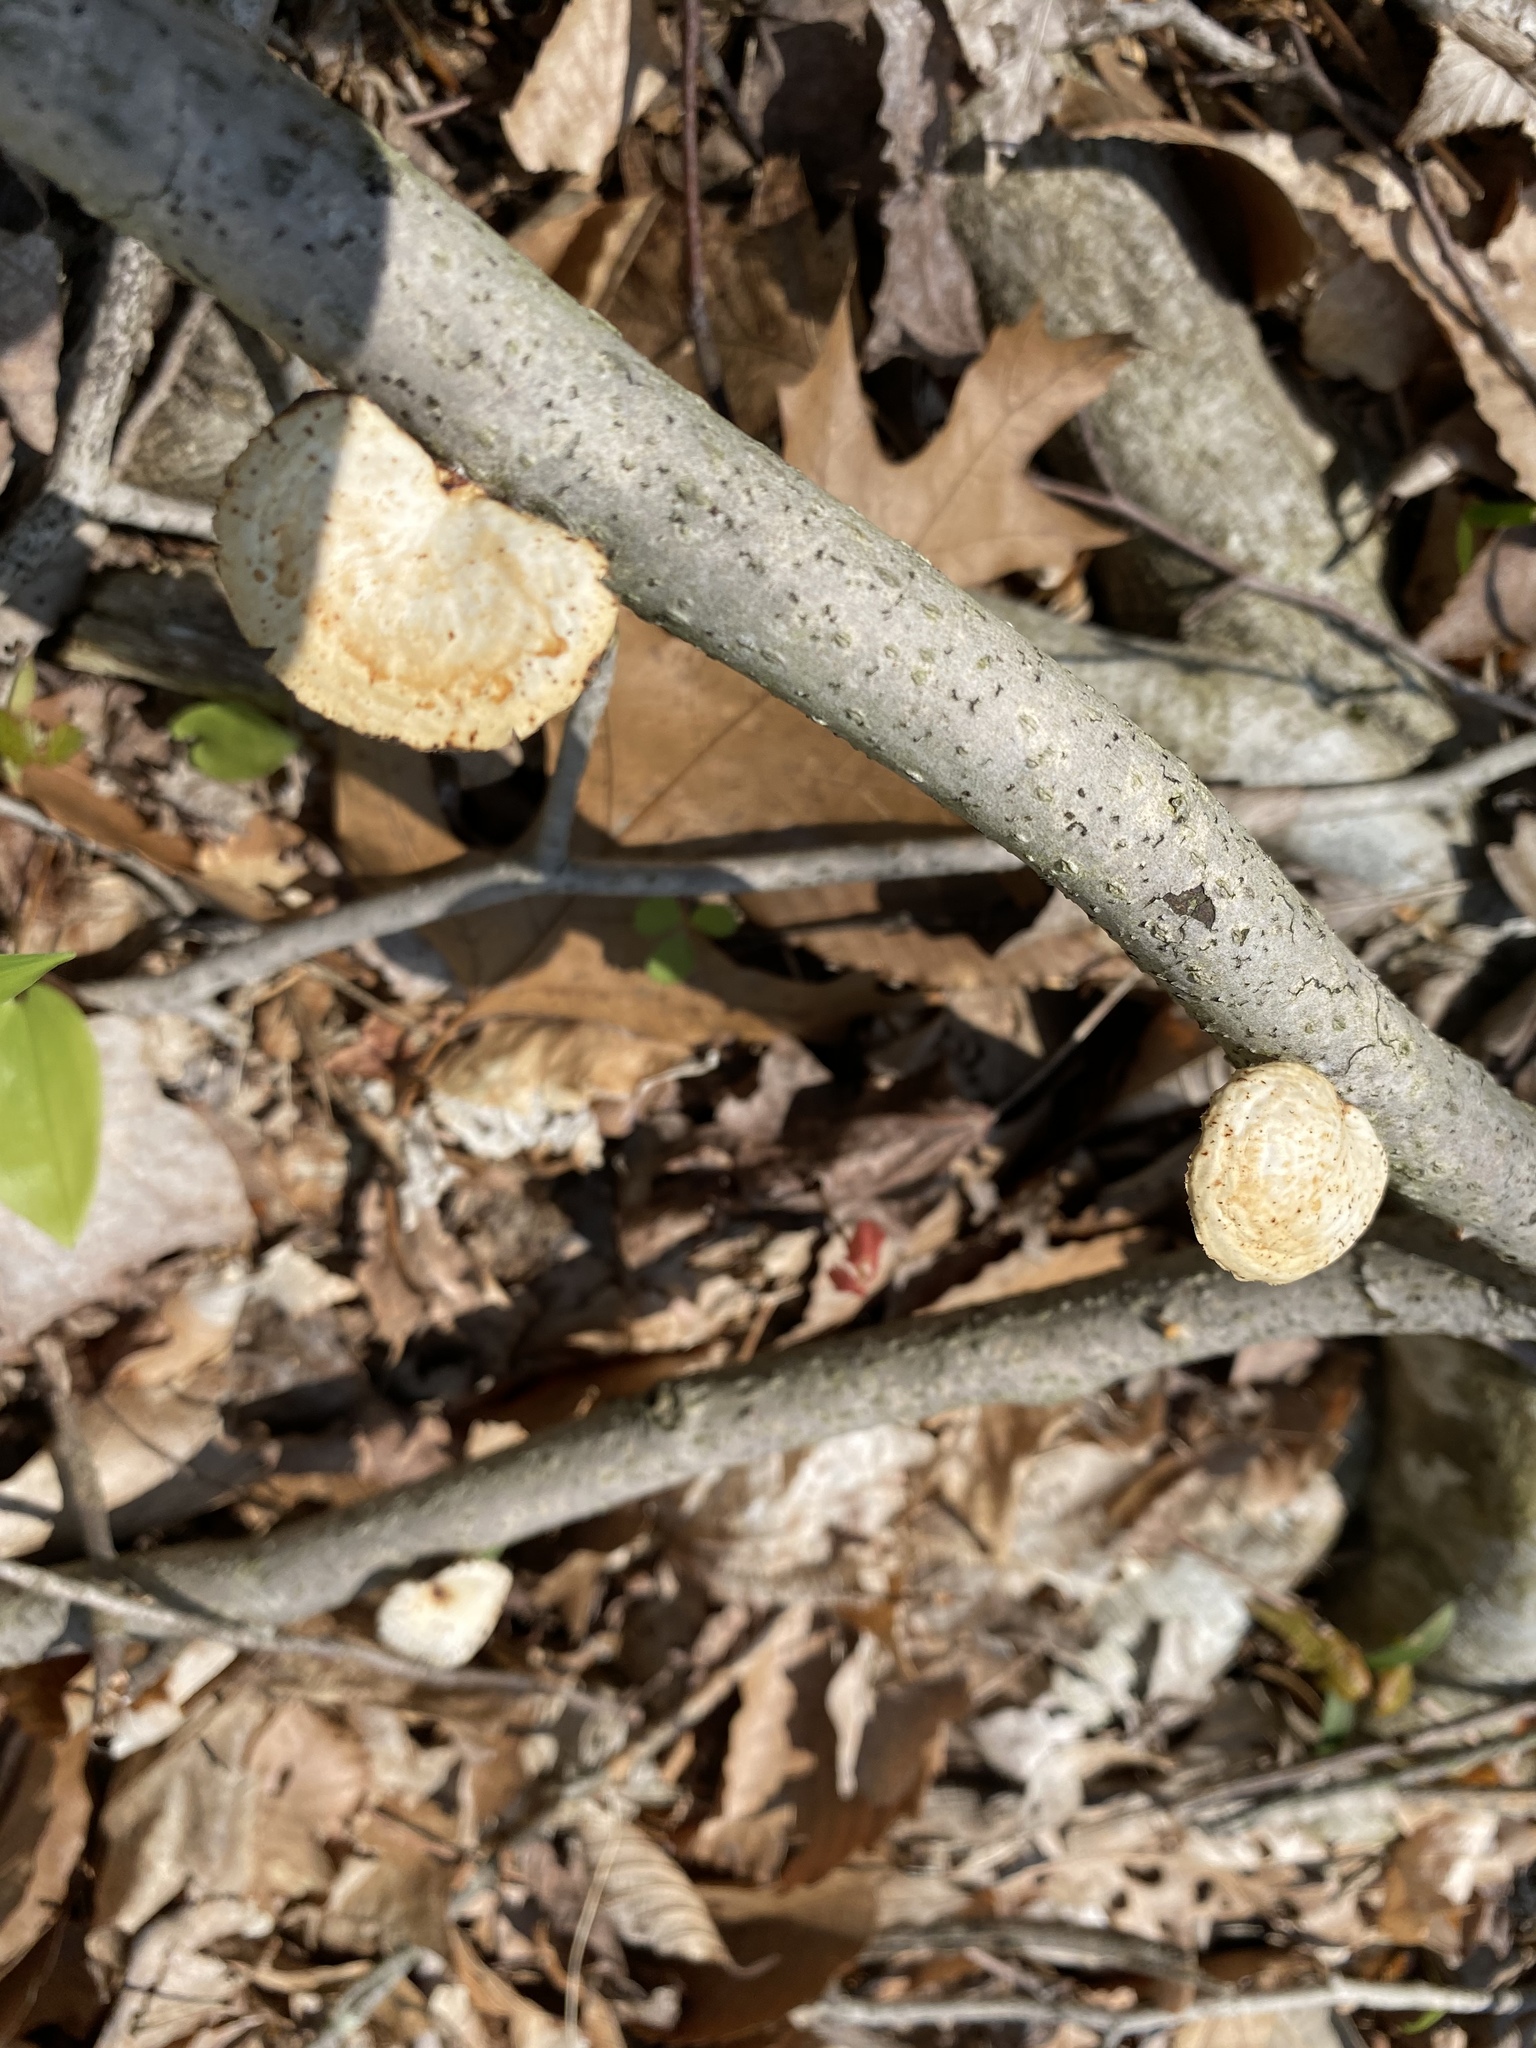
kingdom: Fungi
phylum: Basidiomycota
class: Agaricomycetes
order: Polyporales
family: Polyporaceae
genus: Neofavolus
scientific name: Neofavolus alveolaris
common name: Hexagonal-pored polypore
